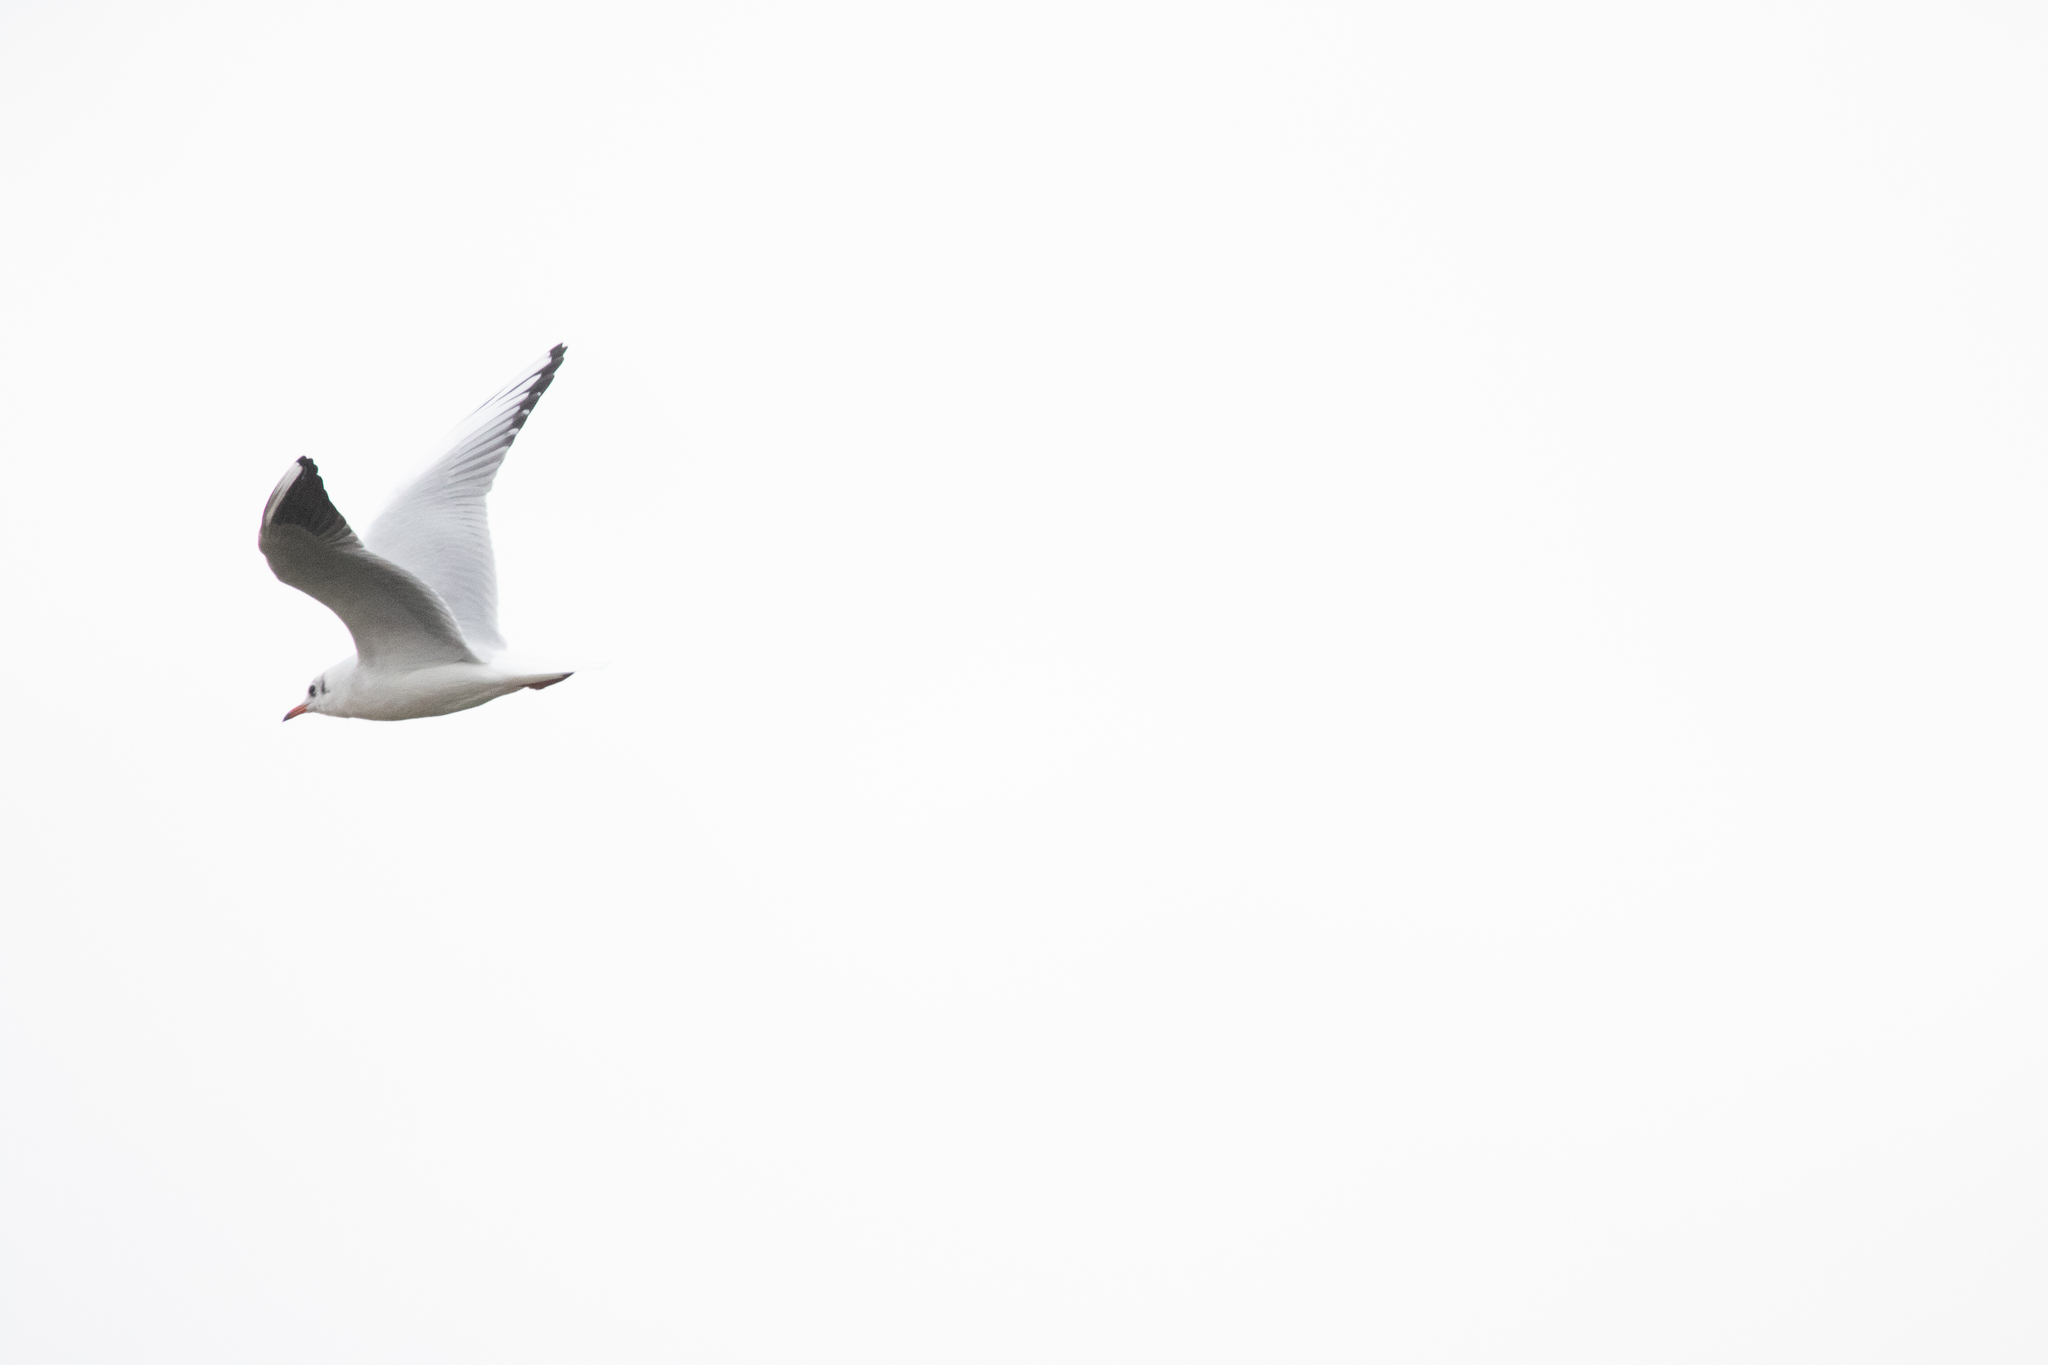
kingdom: Animalia
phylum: Chordata
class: Aves
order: Charadriiformes
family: Laridae
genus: Chroicocephalus
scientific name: Chroicocephalus ridibundus
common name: Black-headed gull
